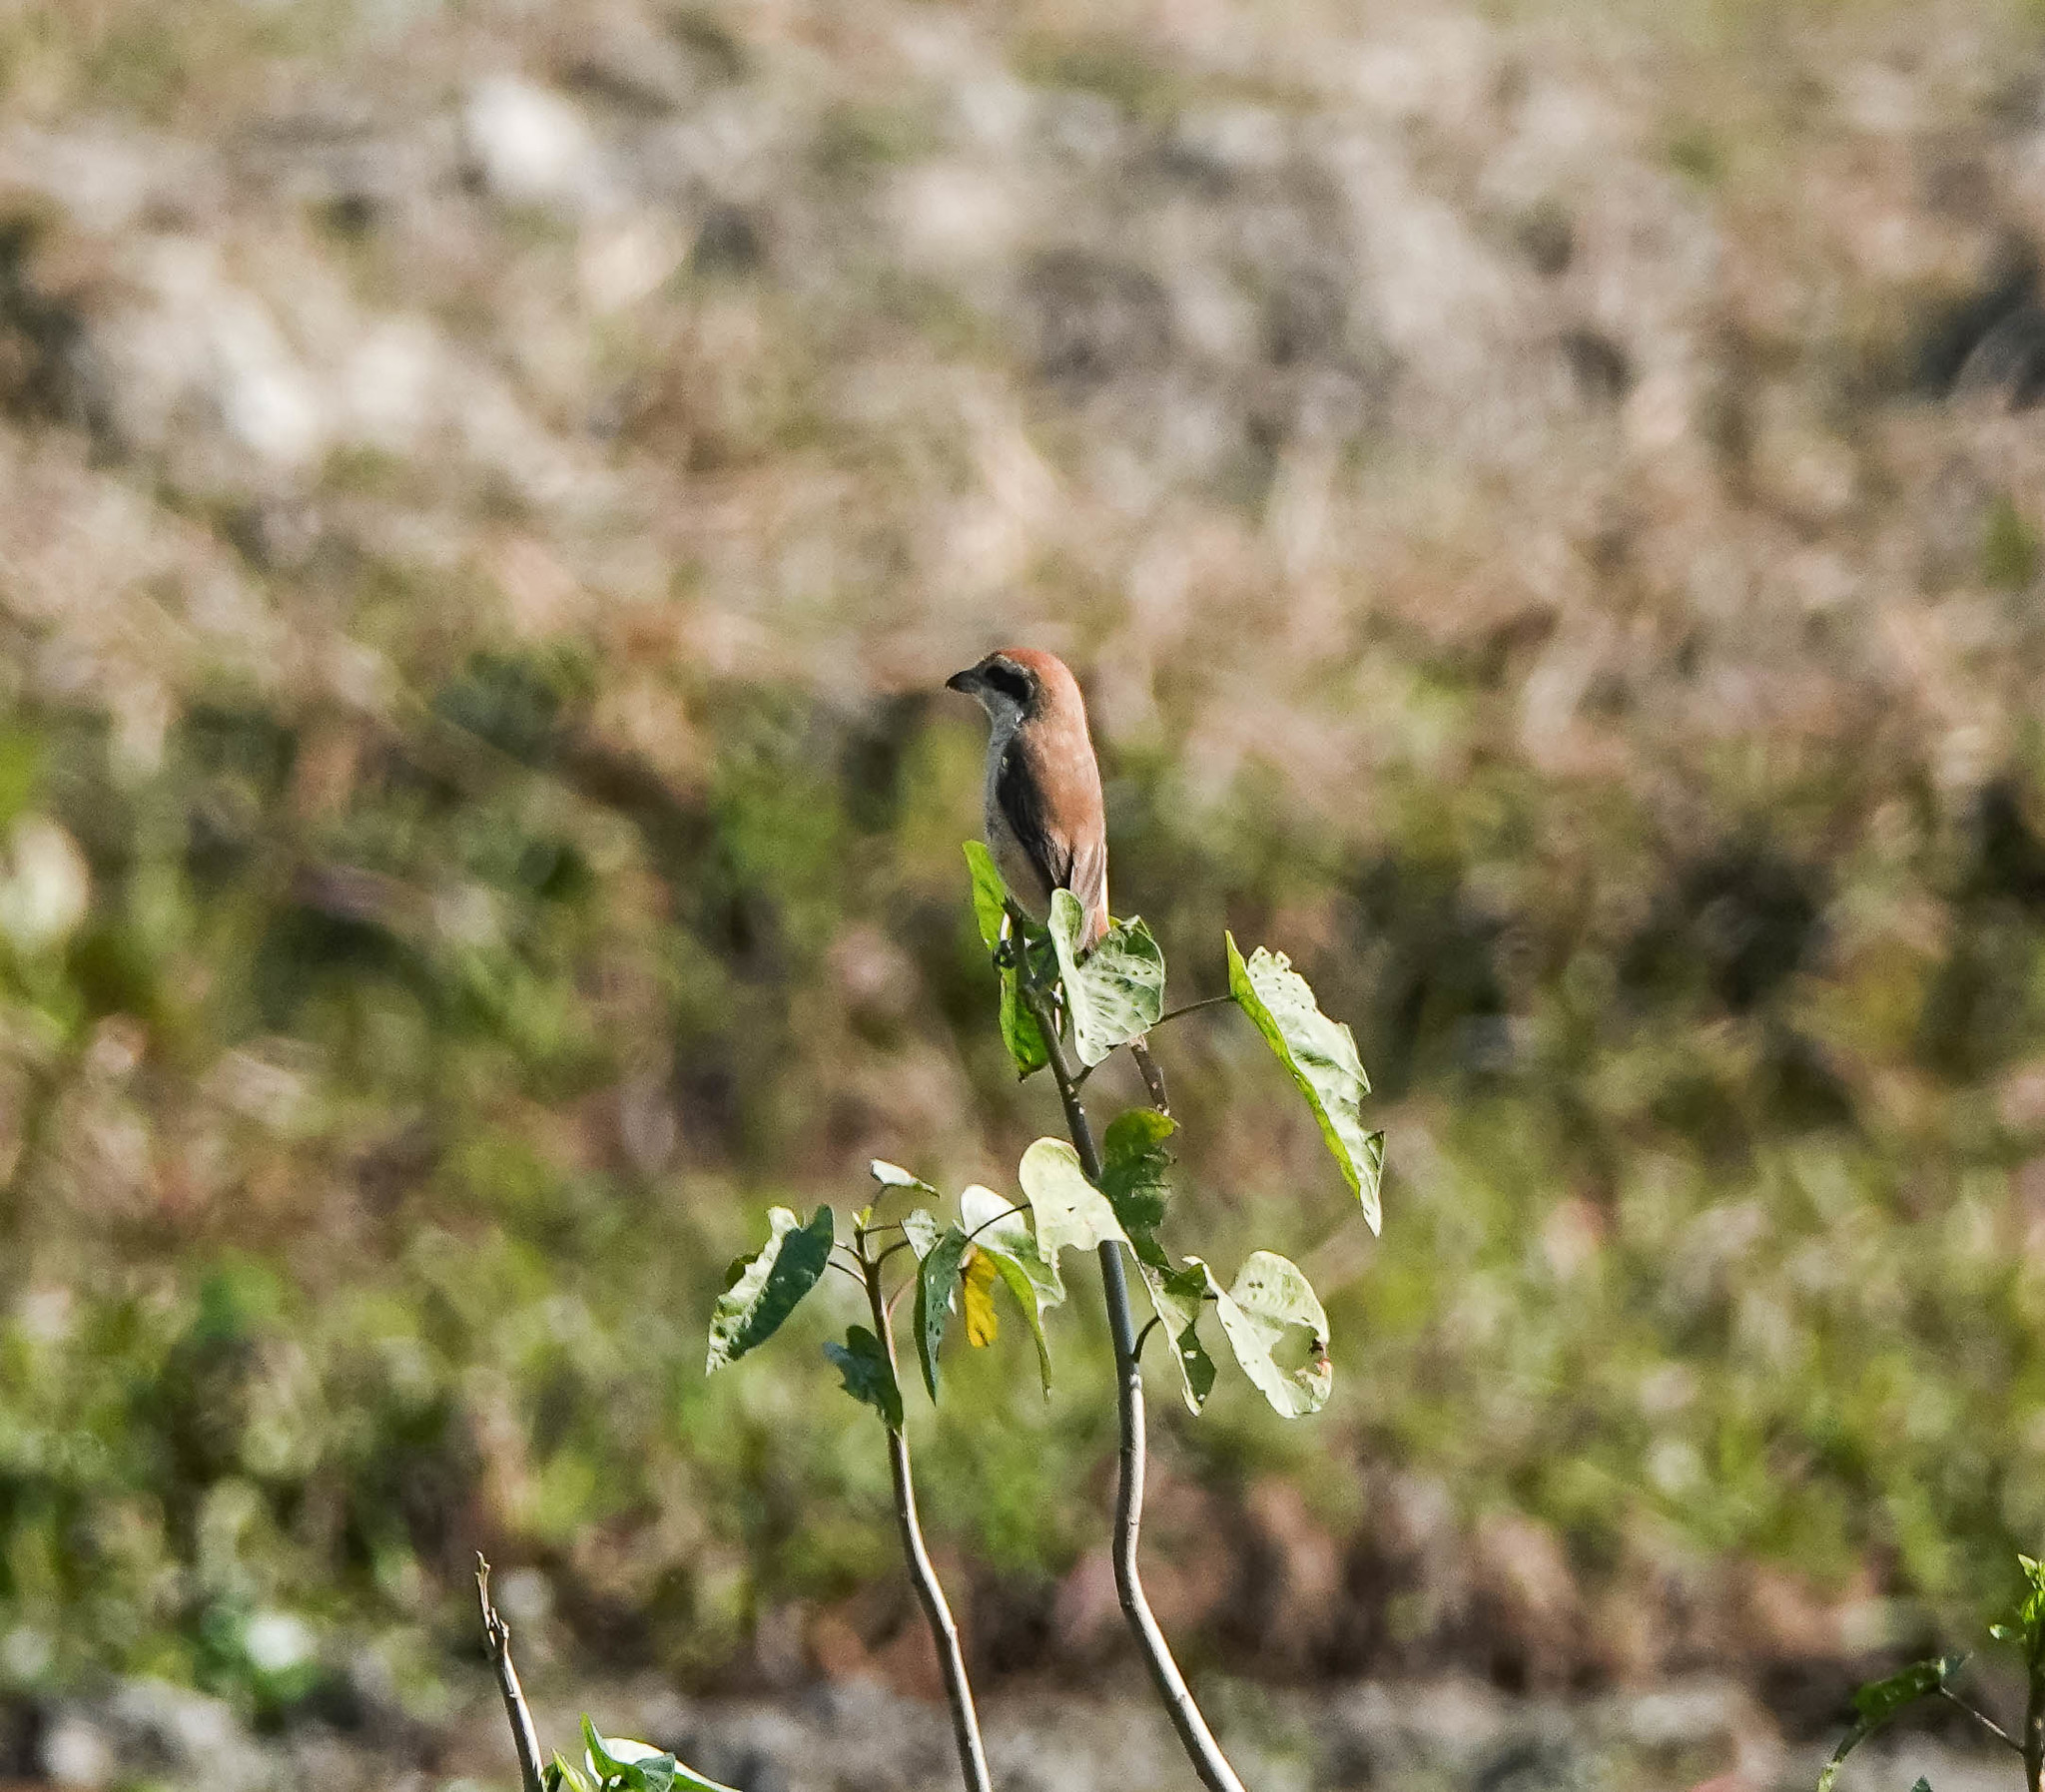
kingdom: Animalia
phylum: Chordata
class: Aves
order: Passeriformes
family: Laniidae
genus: Lanius
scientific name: Lanius cristatus
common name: Brown shrike
